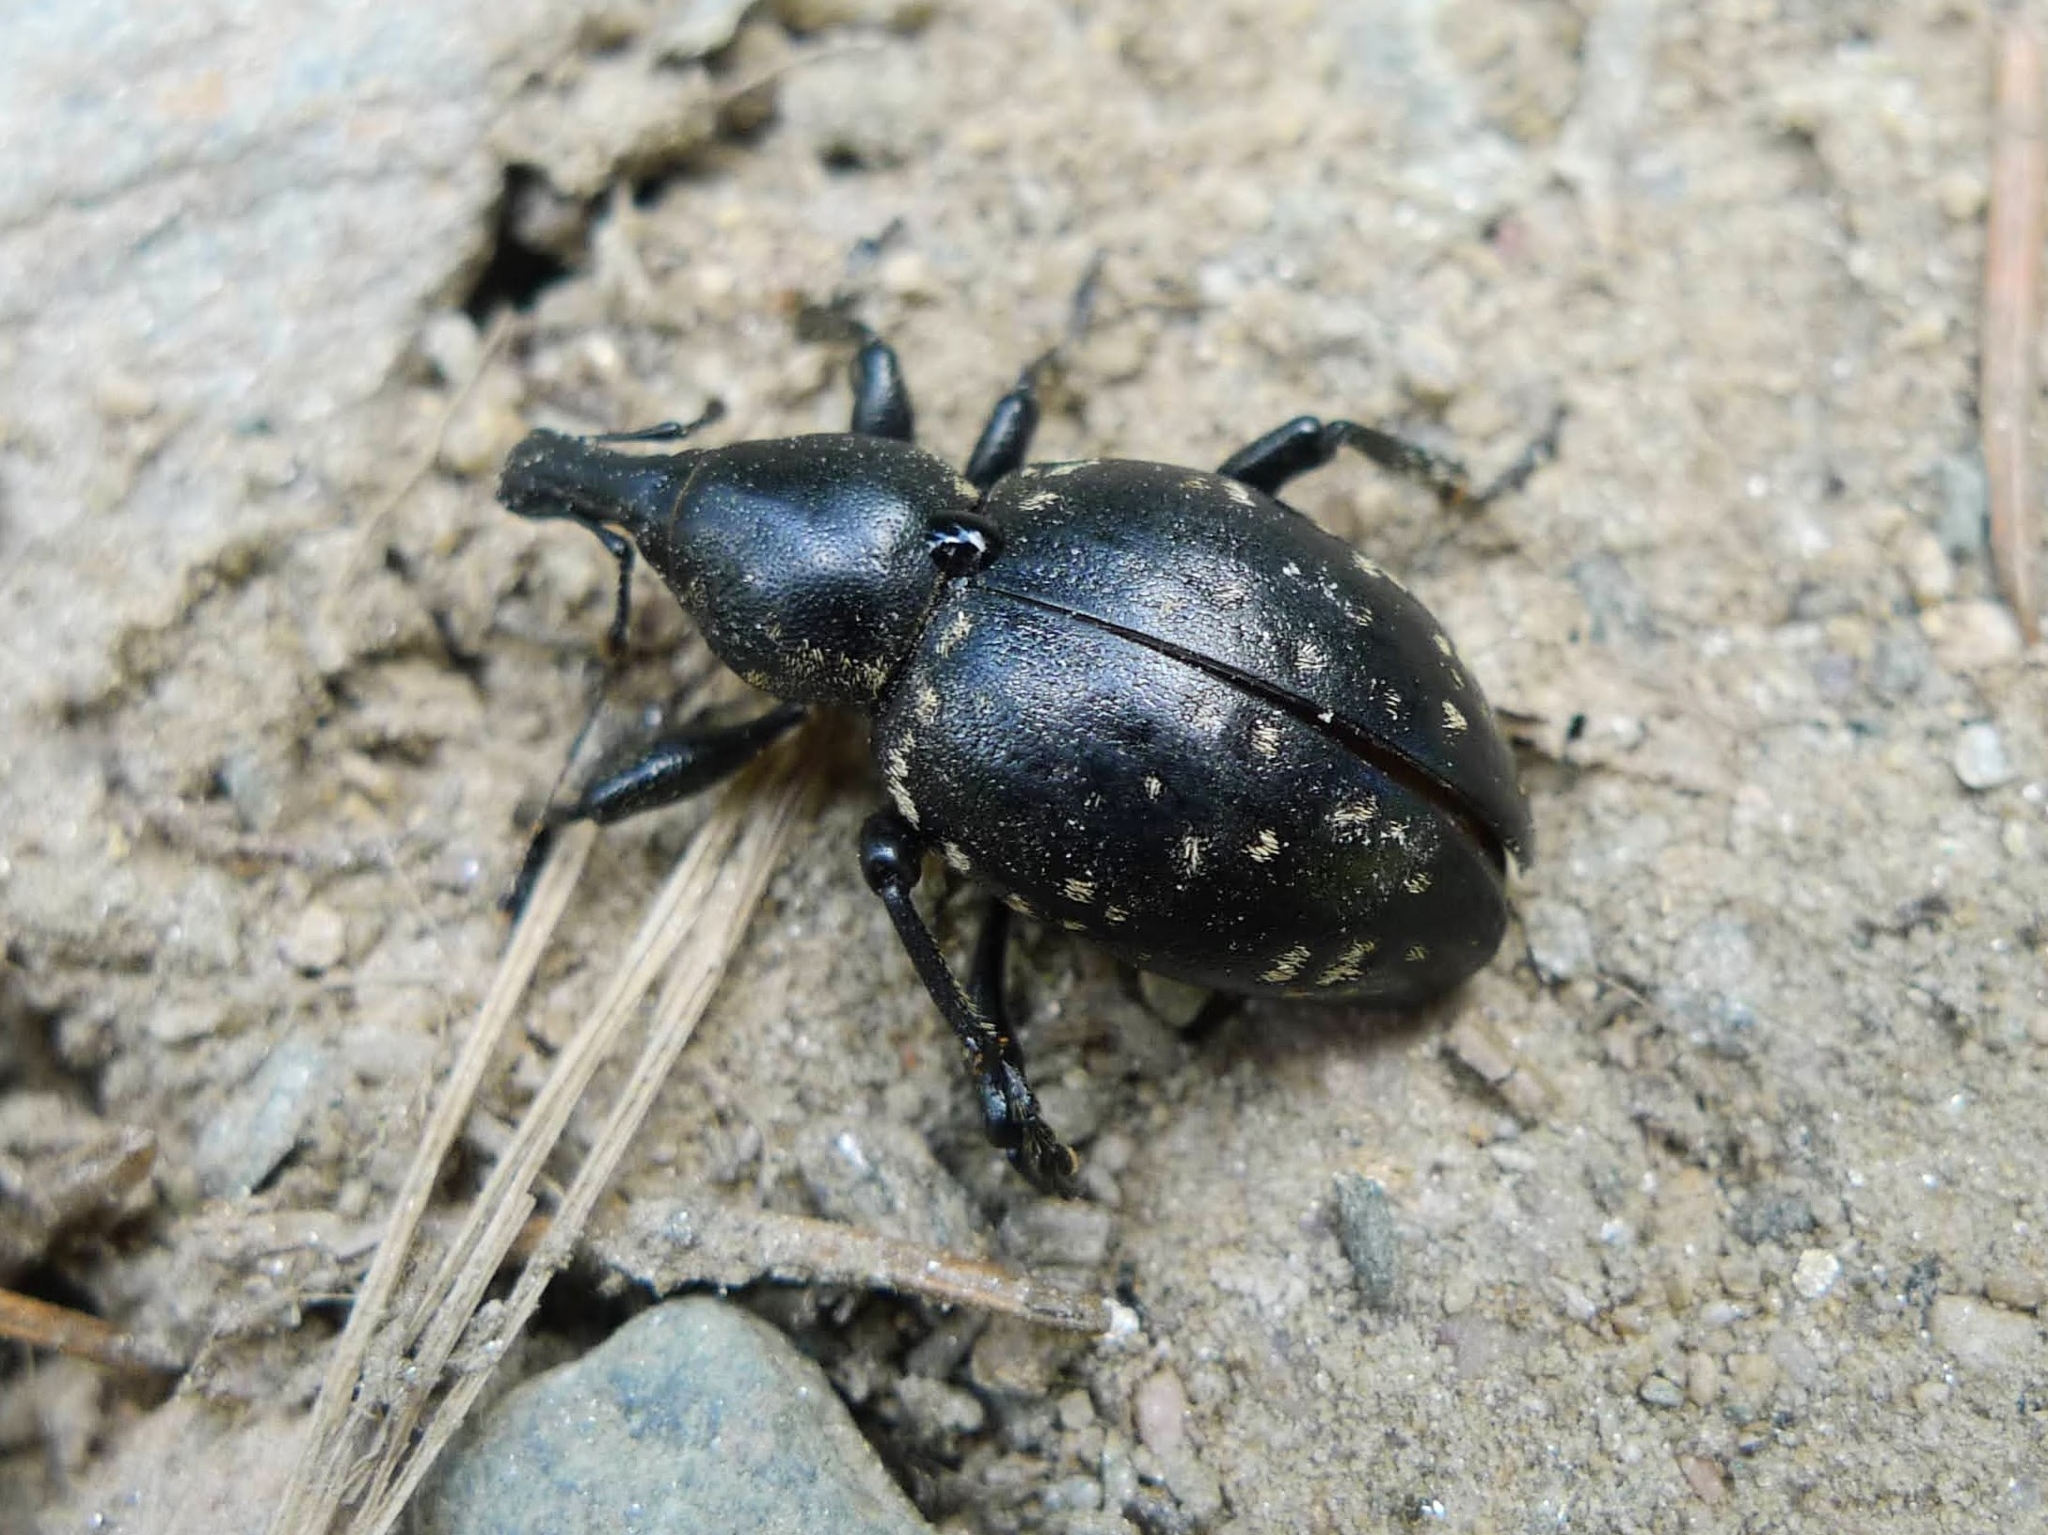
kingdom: Animalia
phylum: Arthropoda
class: Insecta
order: Coleoptera
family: Curculionidae
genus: Liparus
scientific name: Liparus germanus
